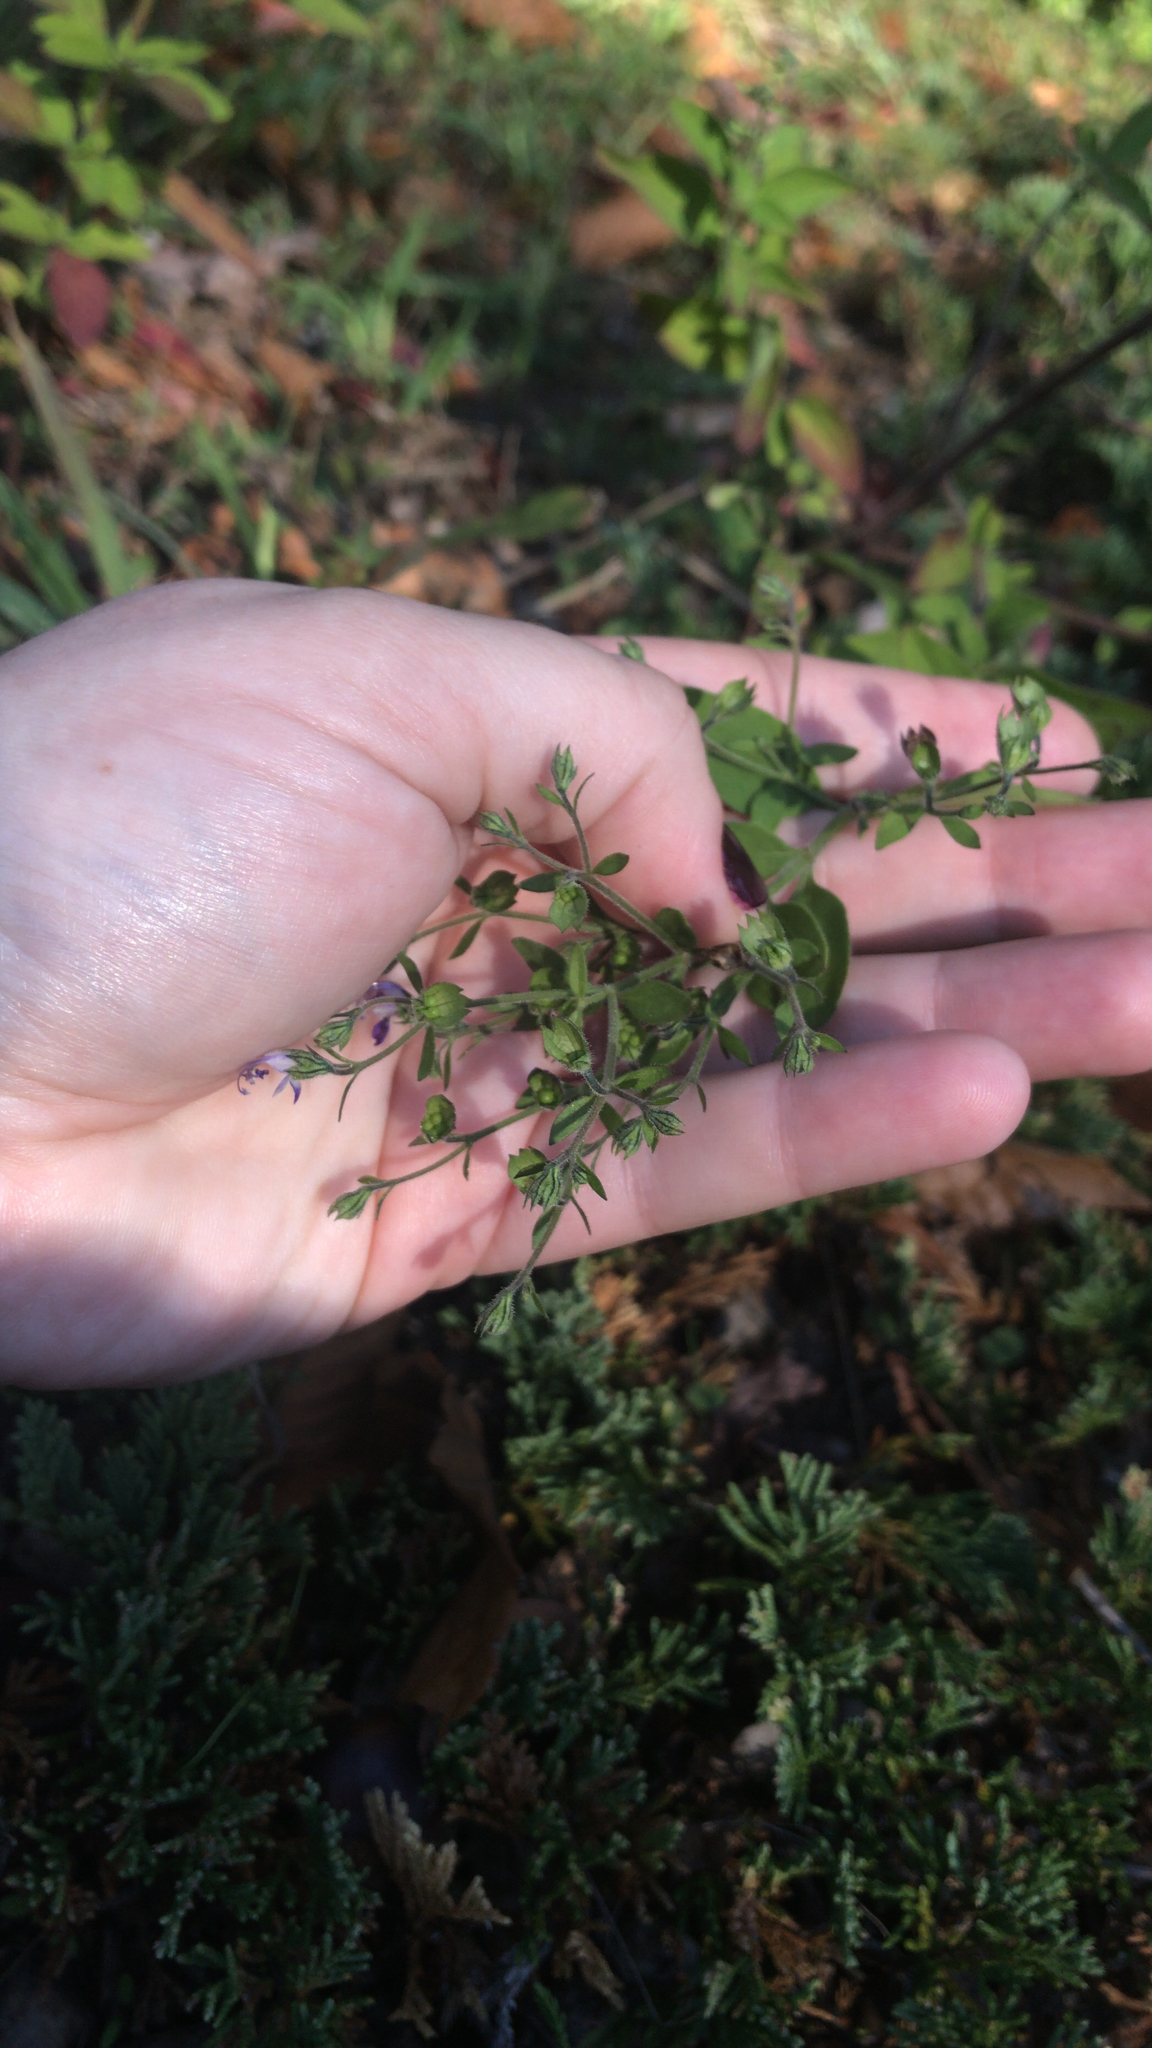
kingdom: Plantae
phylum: Tracheophyta
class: Magnoliopsida
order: Lamiales
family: Lamiaceae
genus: Trichostema
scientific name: Trichostema dichotomum
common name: Bastard pennyroyal
